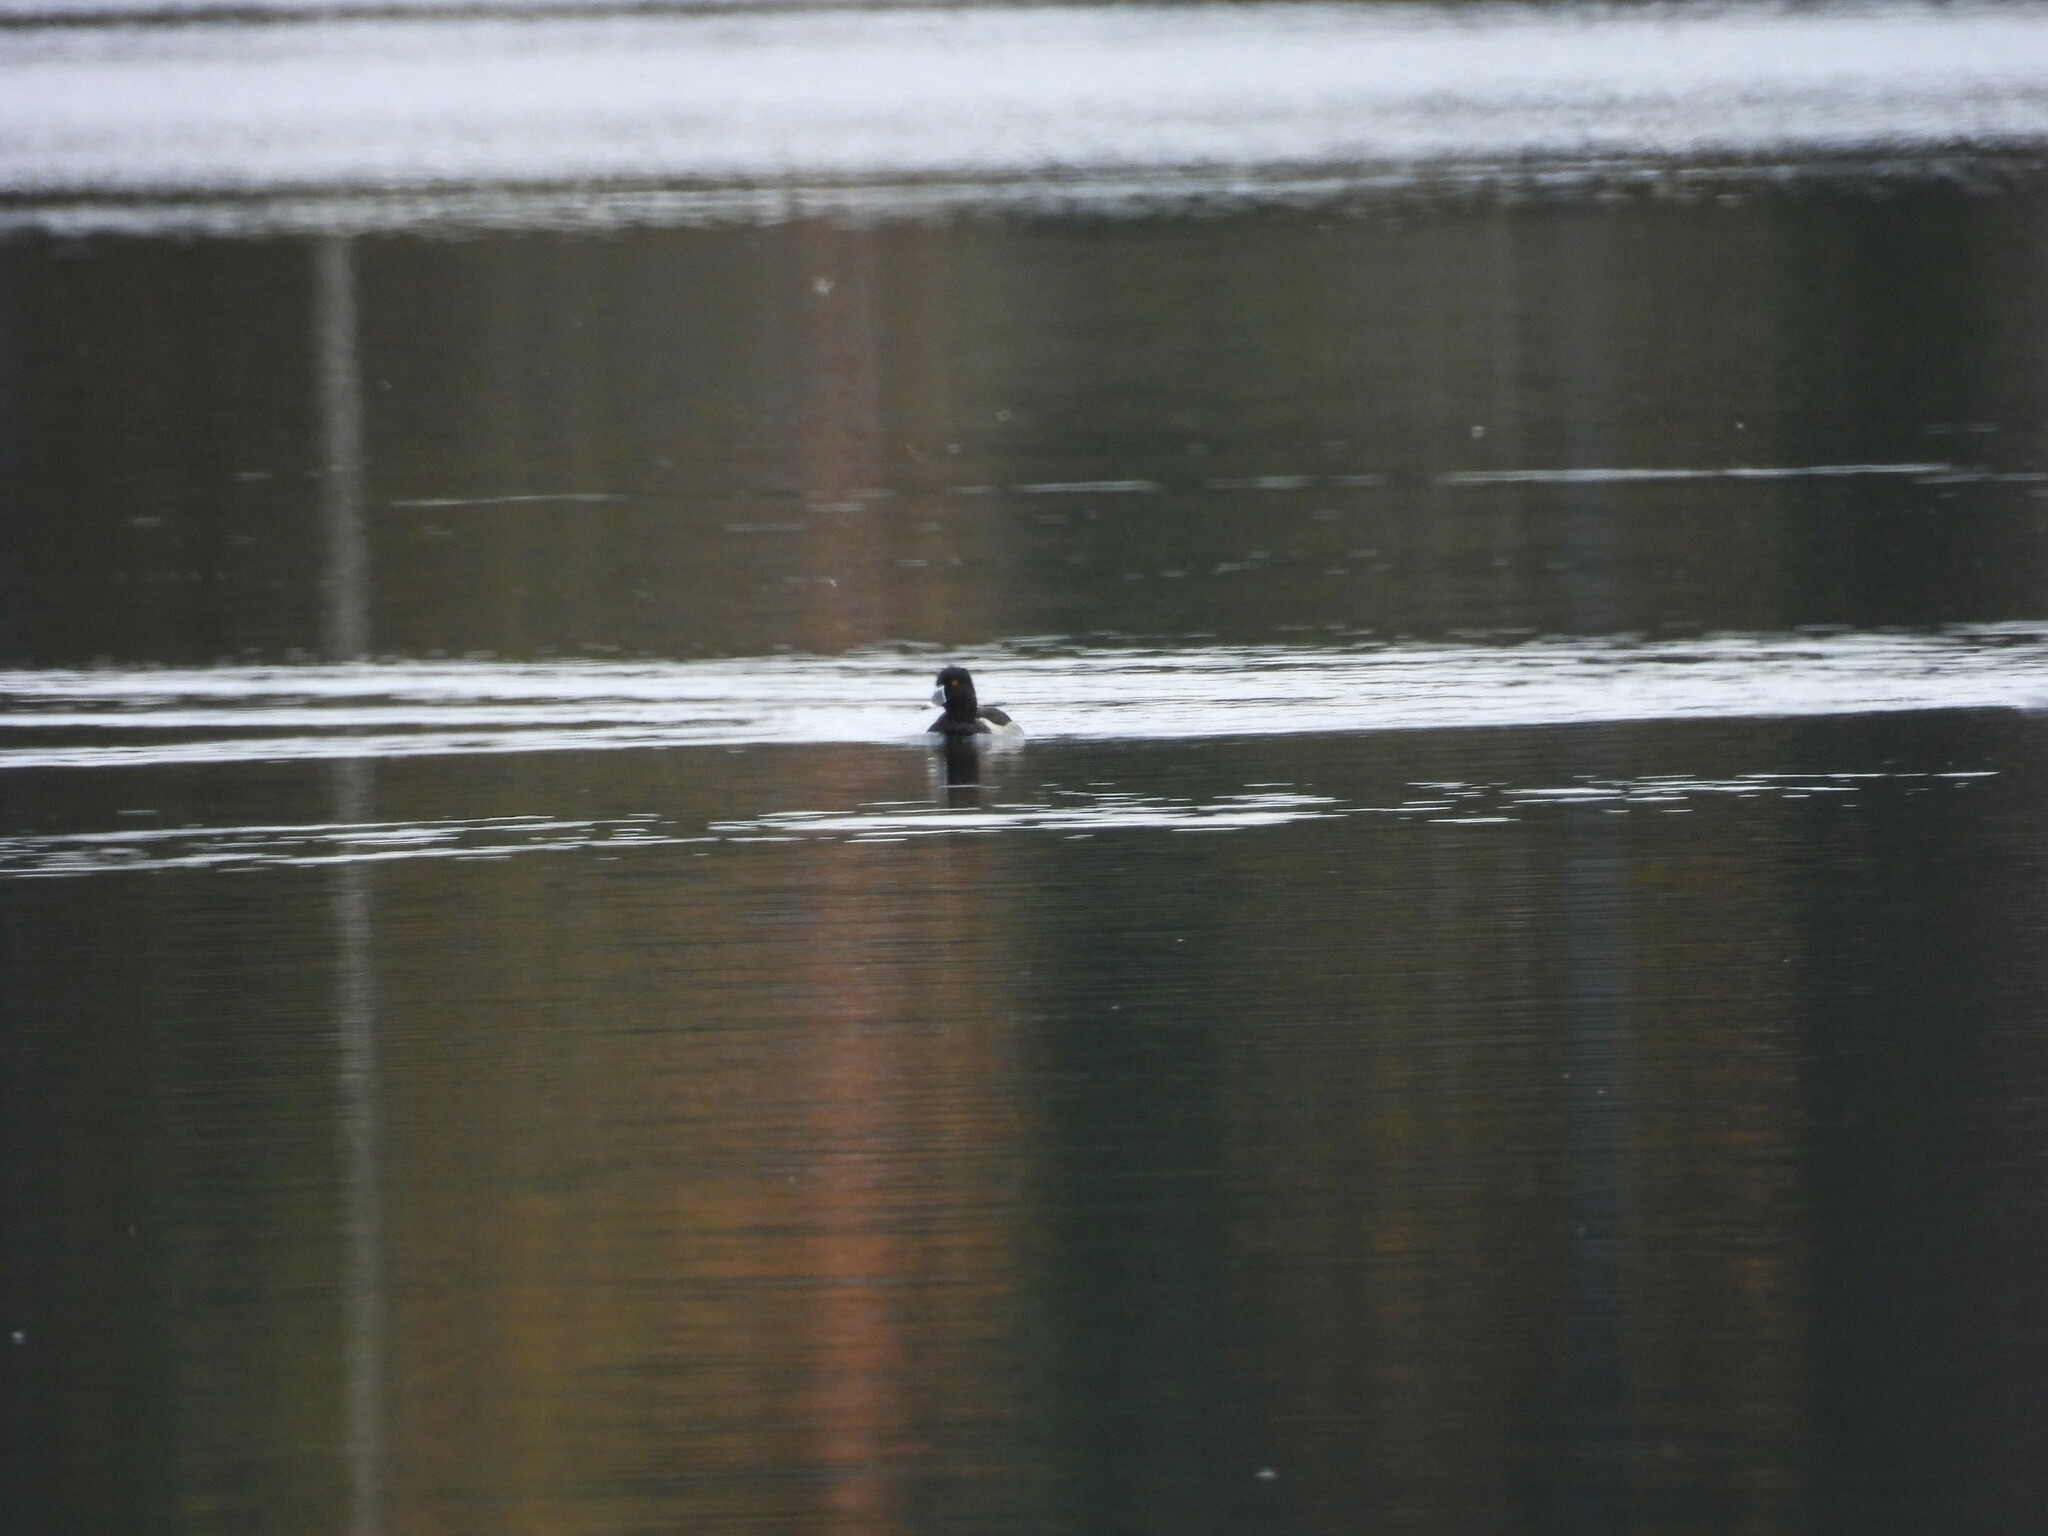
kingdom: Animalia
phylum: Chordata
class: Aves
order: Anseriformes
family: Anatidae
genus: Aythya
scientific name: Aythya collaris
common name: Ring-necked duck
